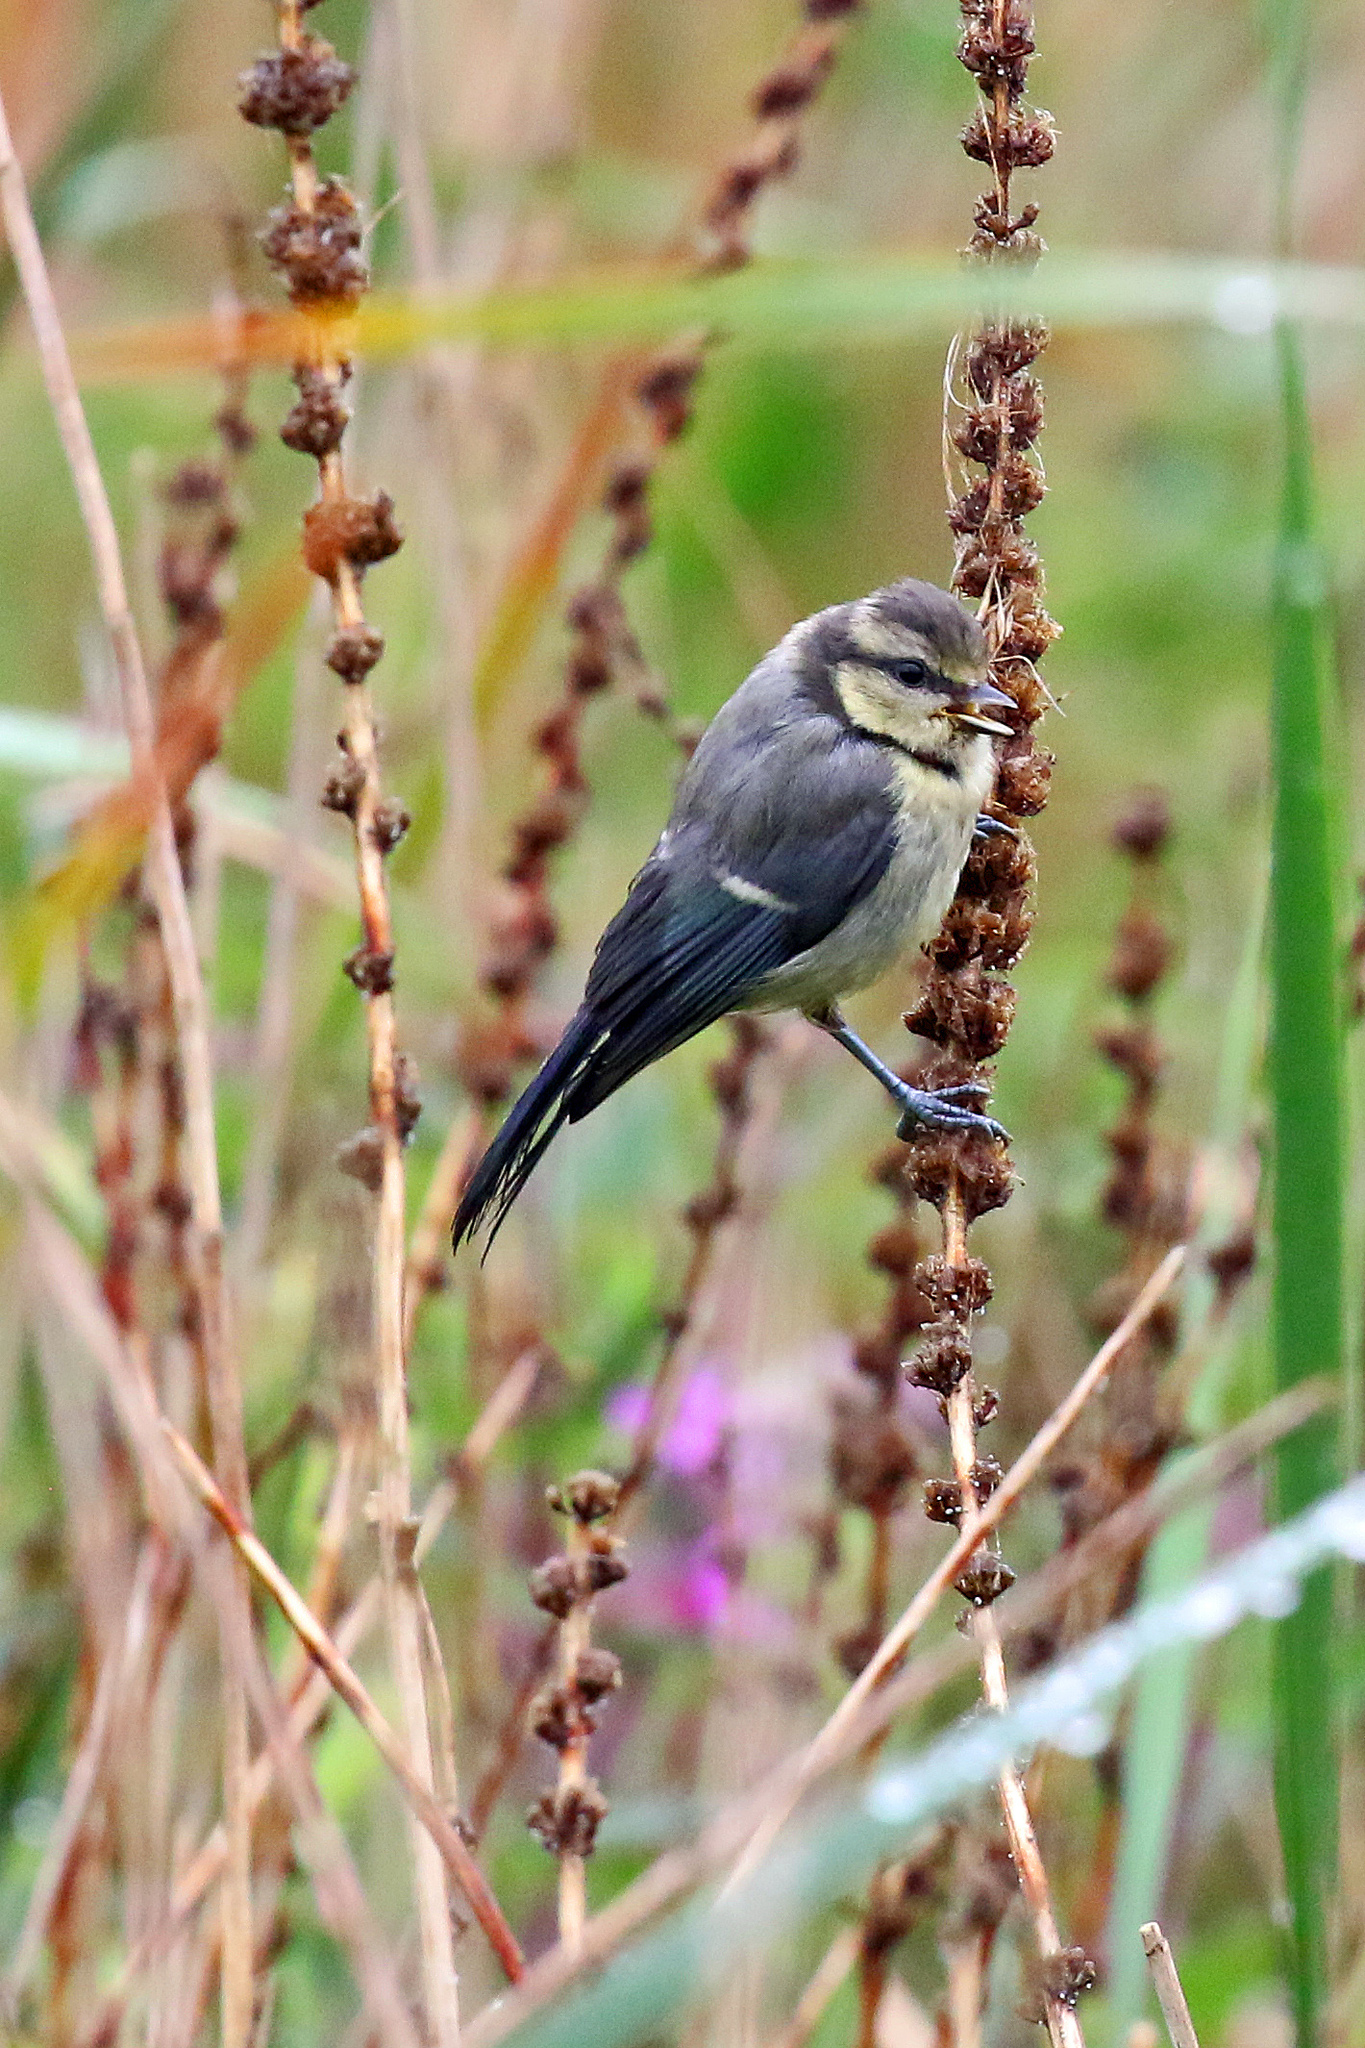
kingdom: Animalia
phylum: Chordata
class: Aves
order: Passeriformes
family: Paridae
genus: Cyanistes
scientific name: Cyanistes caeruleus
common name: Eurasian blue tit
